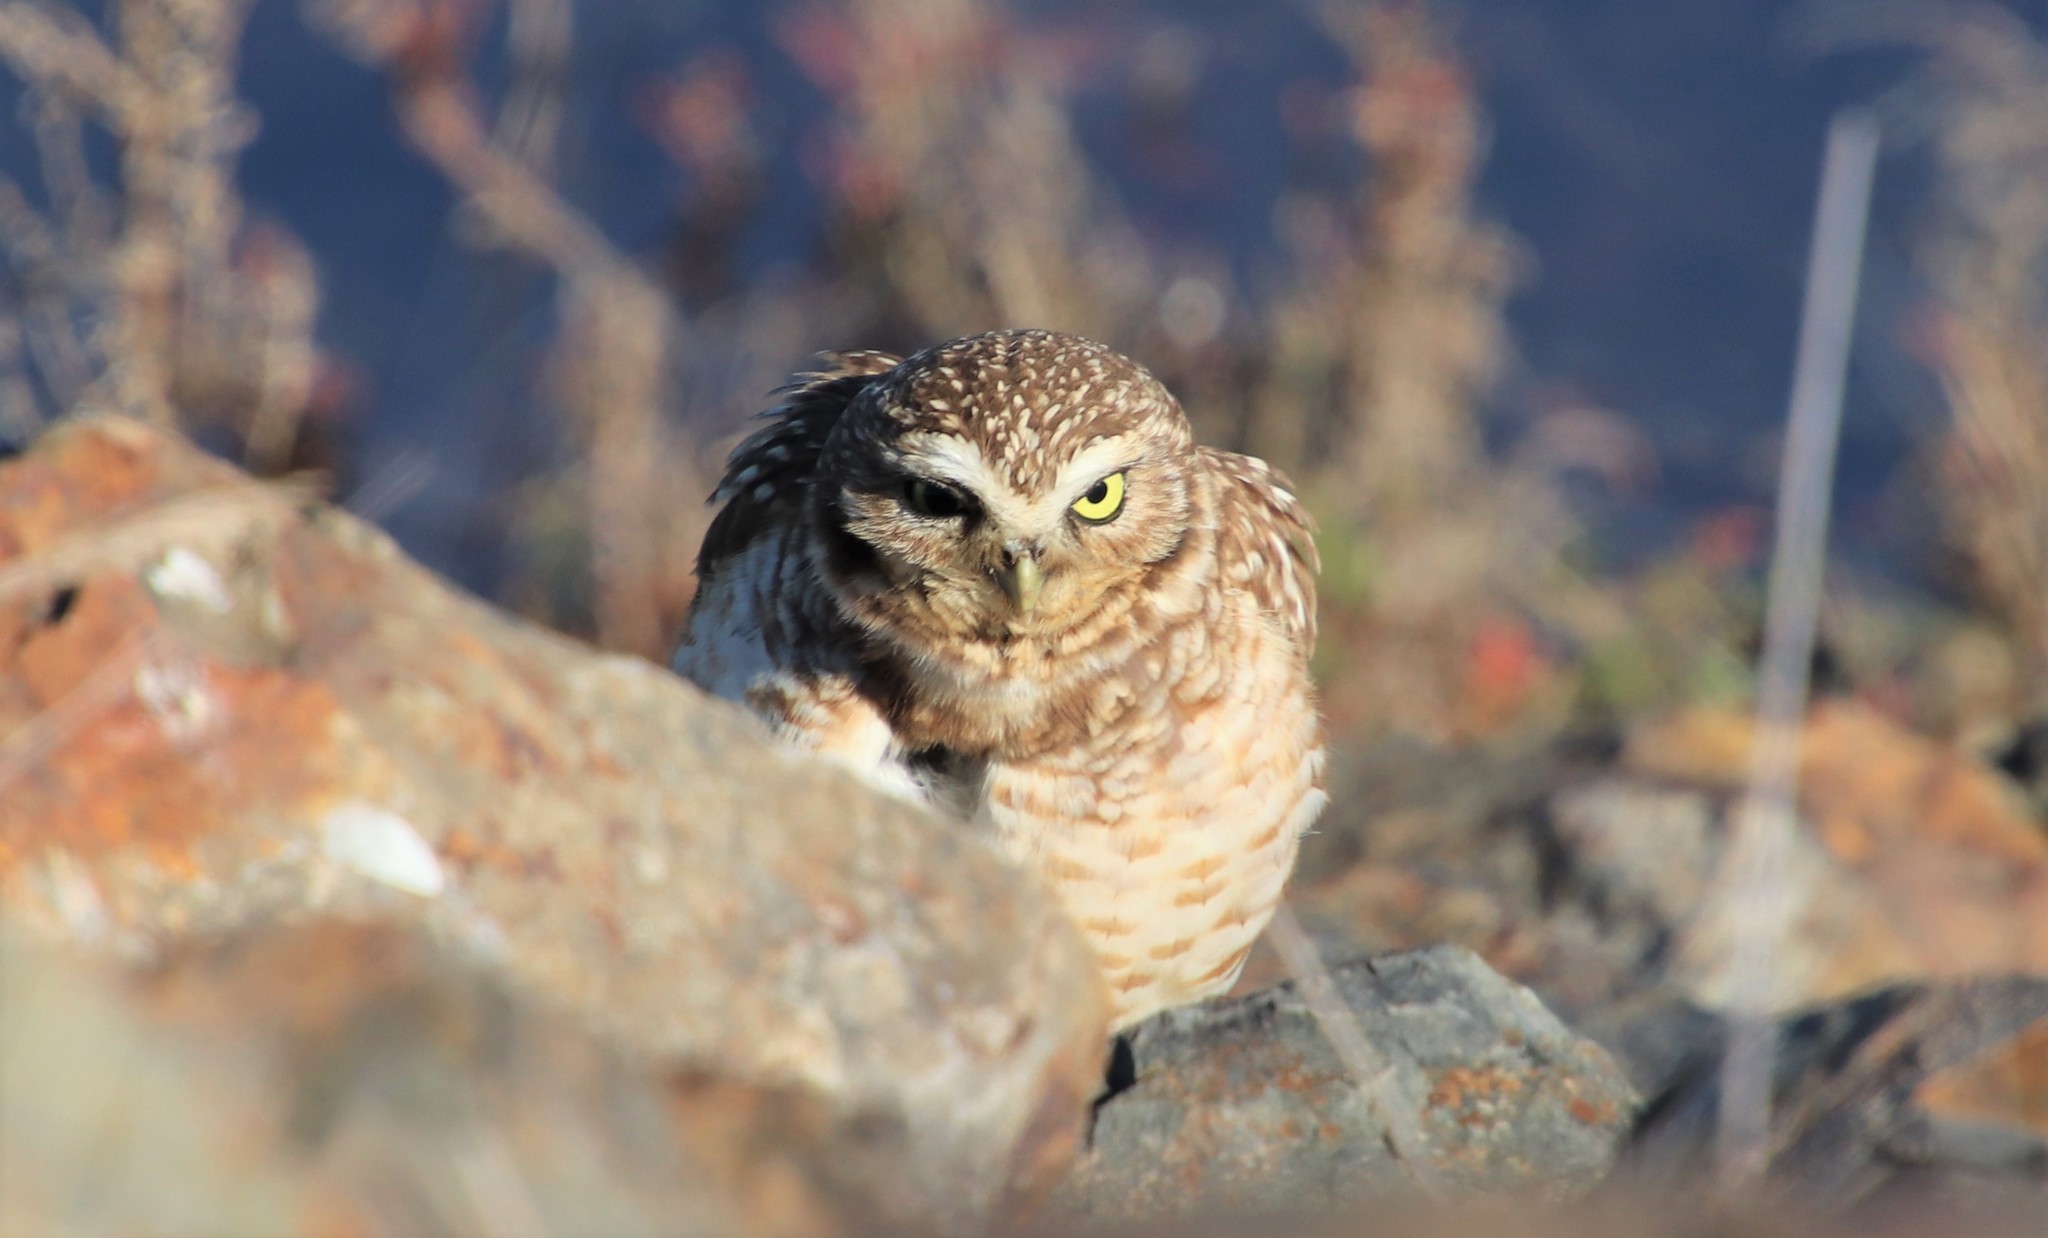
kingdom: Animalia
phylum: Chordata
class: Aves
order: Strigiformes
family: Strigidae
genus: Athene
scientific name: Athene cunicularia
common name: Burrowing owl
